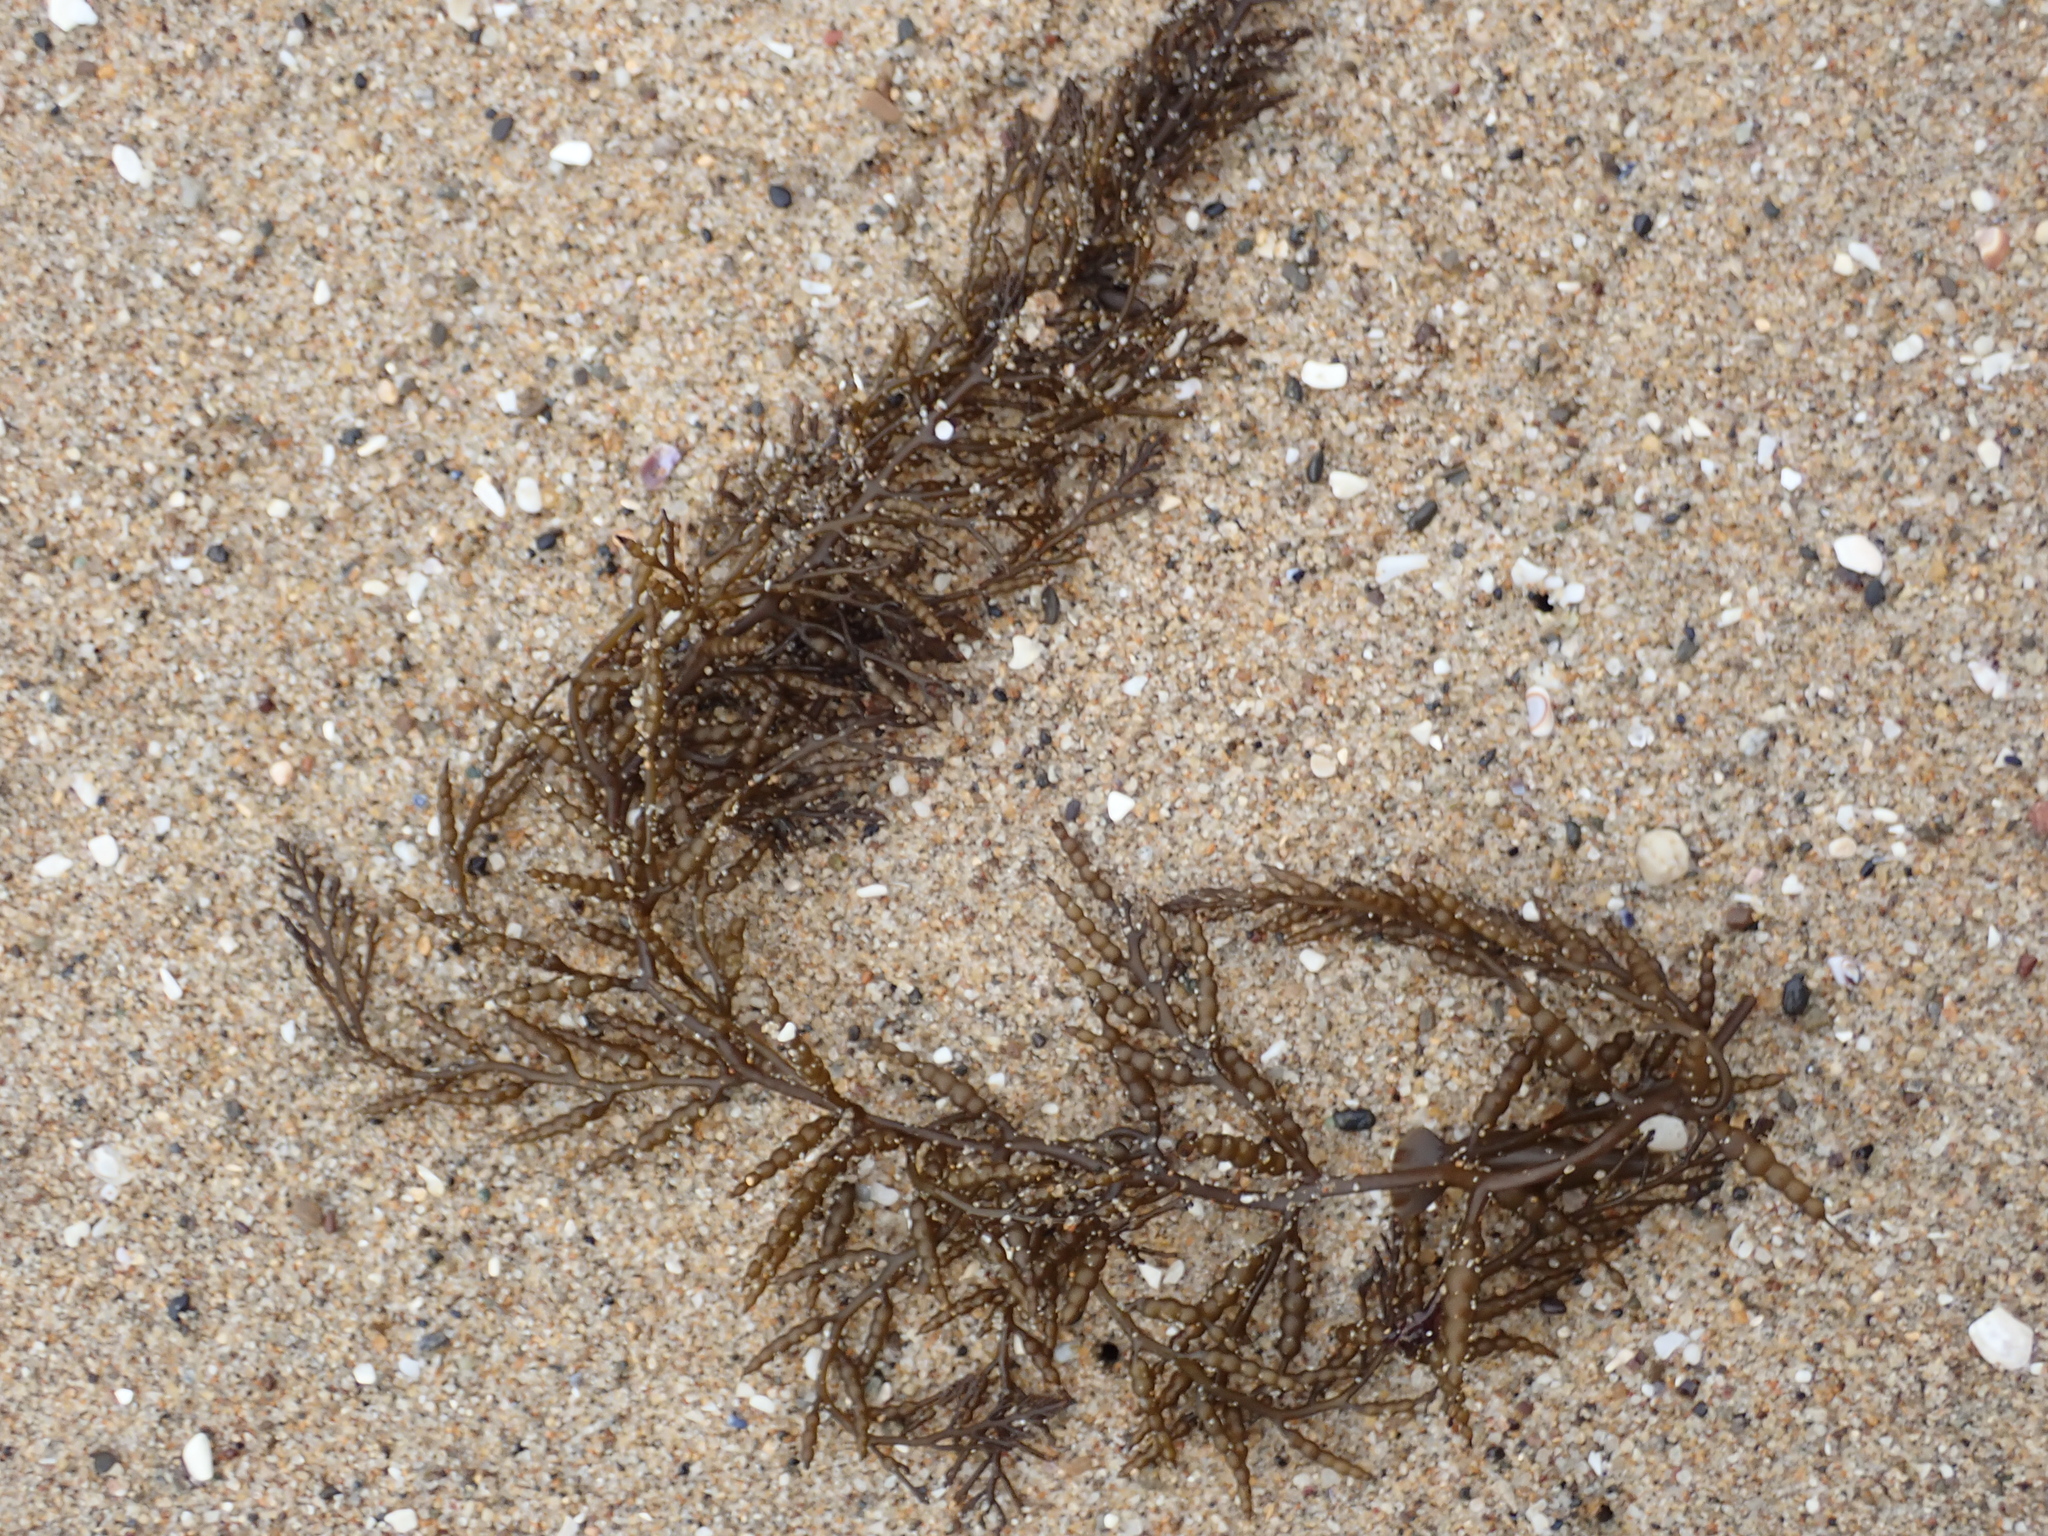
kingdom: Chromista
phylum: Ochrophyta
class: Phaeophyceae
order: Fucales
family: Sargassaceae
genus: Stephanocystis
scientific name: Stephanocystis
